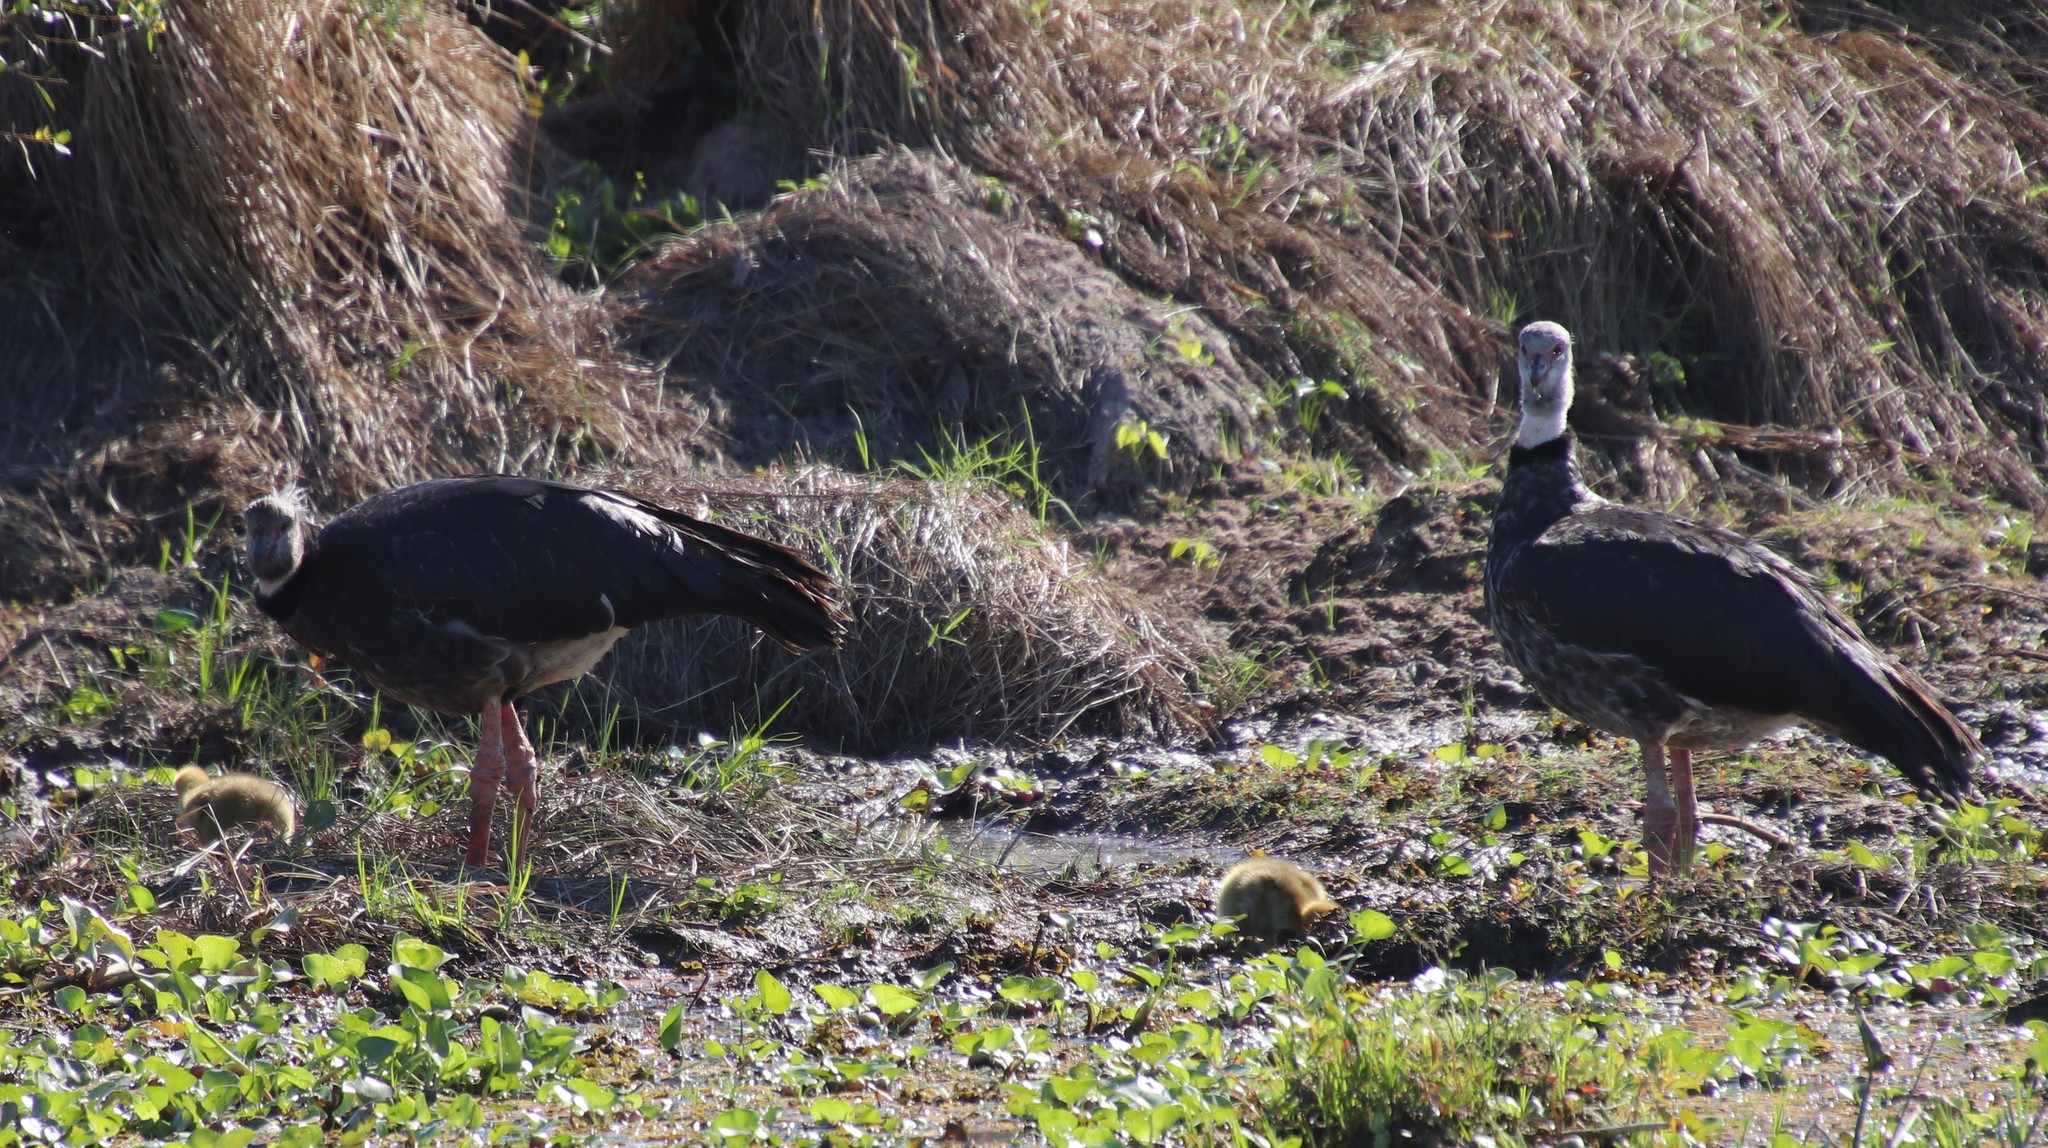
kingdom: Animalia
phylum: Chordata
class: Aves
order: Anseriformes
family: Anhimidae
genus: Chauna
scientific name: Chauna torquata
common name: Southern screamer
